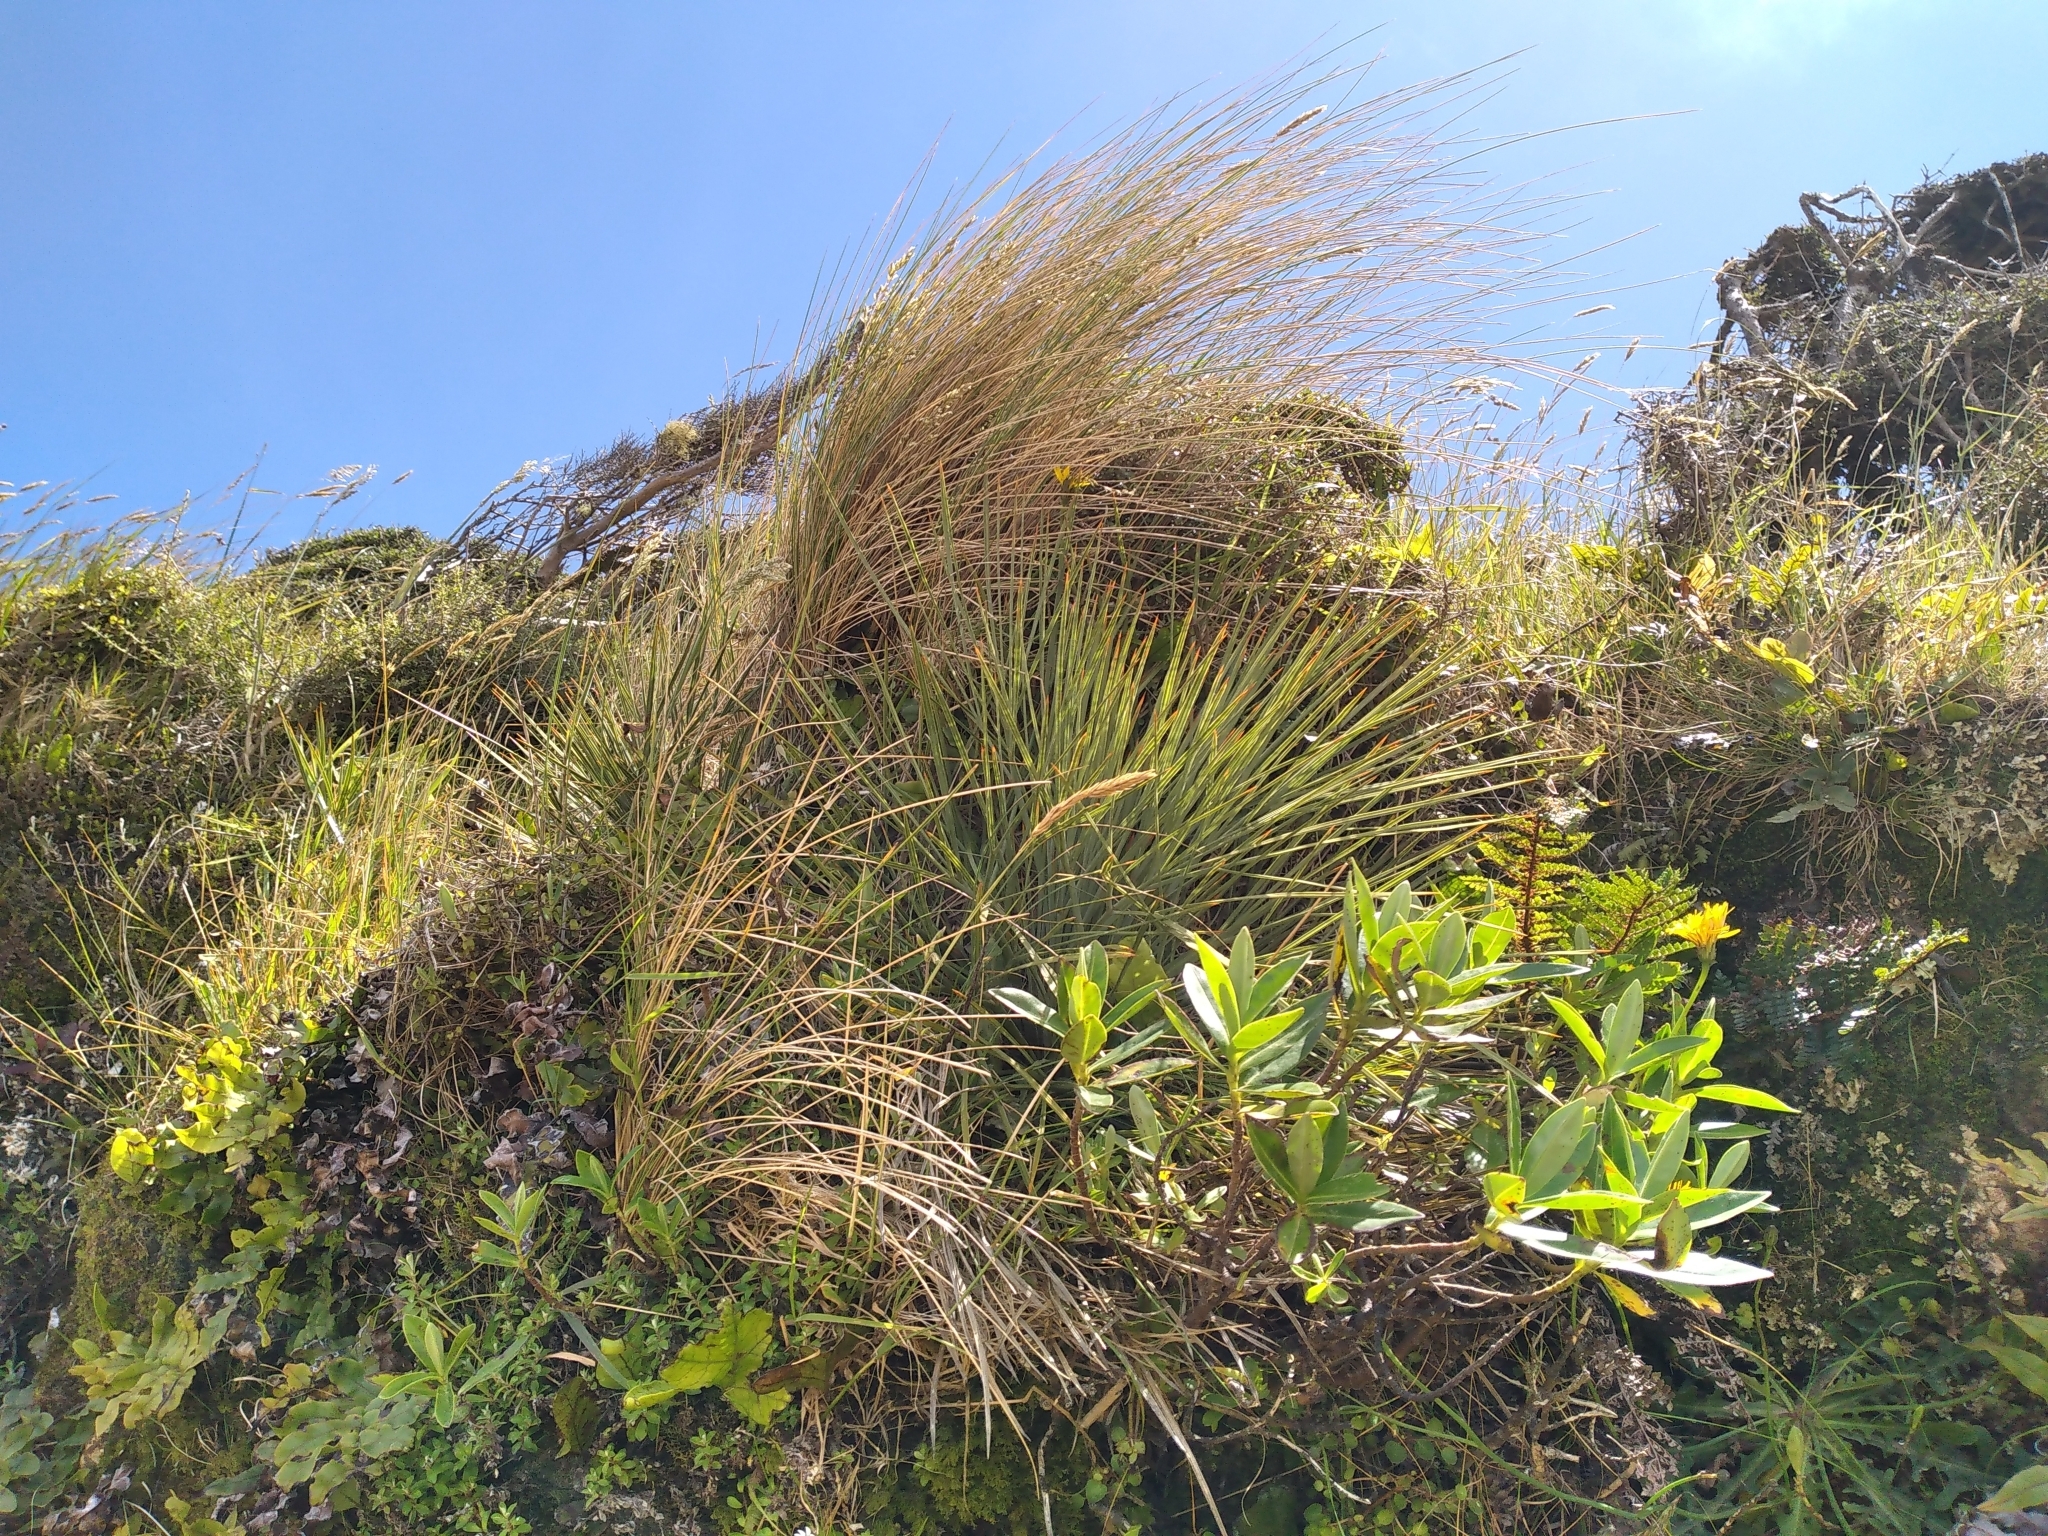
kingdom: Plantae
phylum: Tracheophyta
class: Magnoliopsida
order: Apiales
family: Apiaceae
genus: Aciphylla
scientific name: Aciphylla squarrosa
